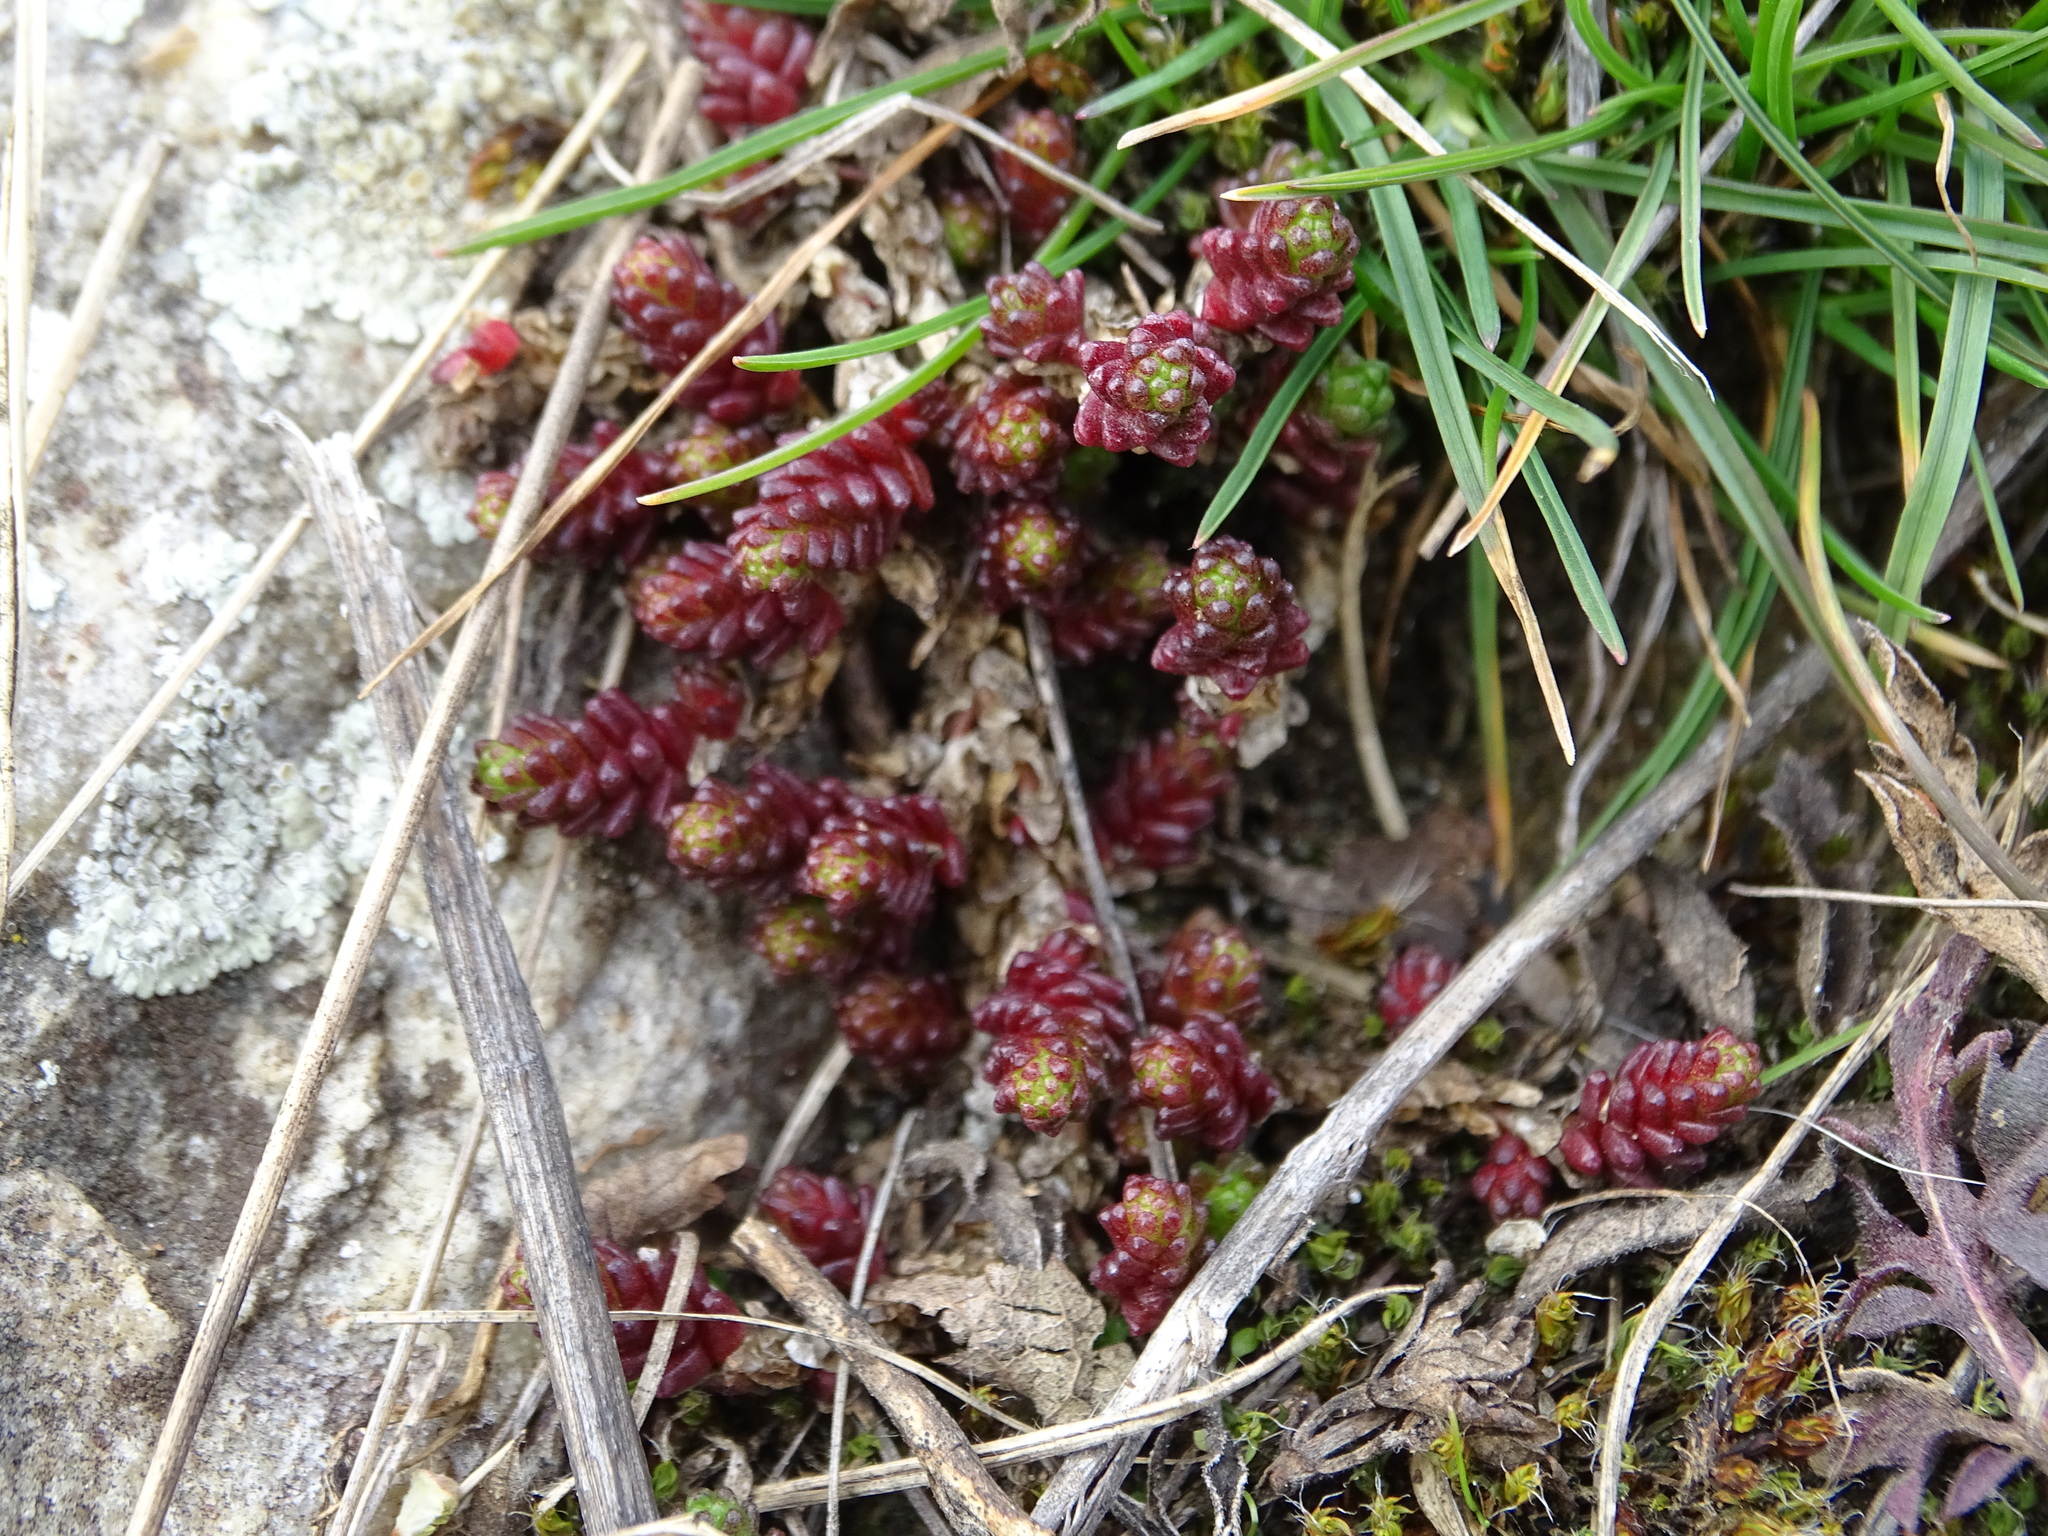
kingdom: Plantae
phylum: Tracheophyta
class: Magnoliopsida
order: Saxifragales
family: Crassulaceae
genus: Sedum
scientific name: Sedum acre
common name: Biting stonecrop
